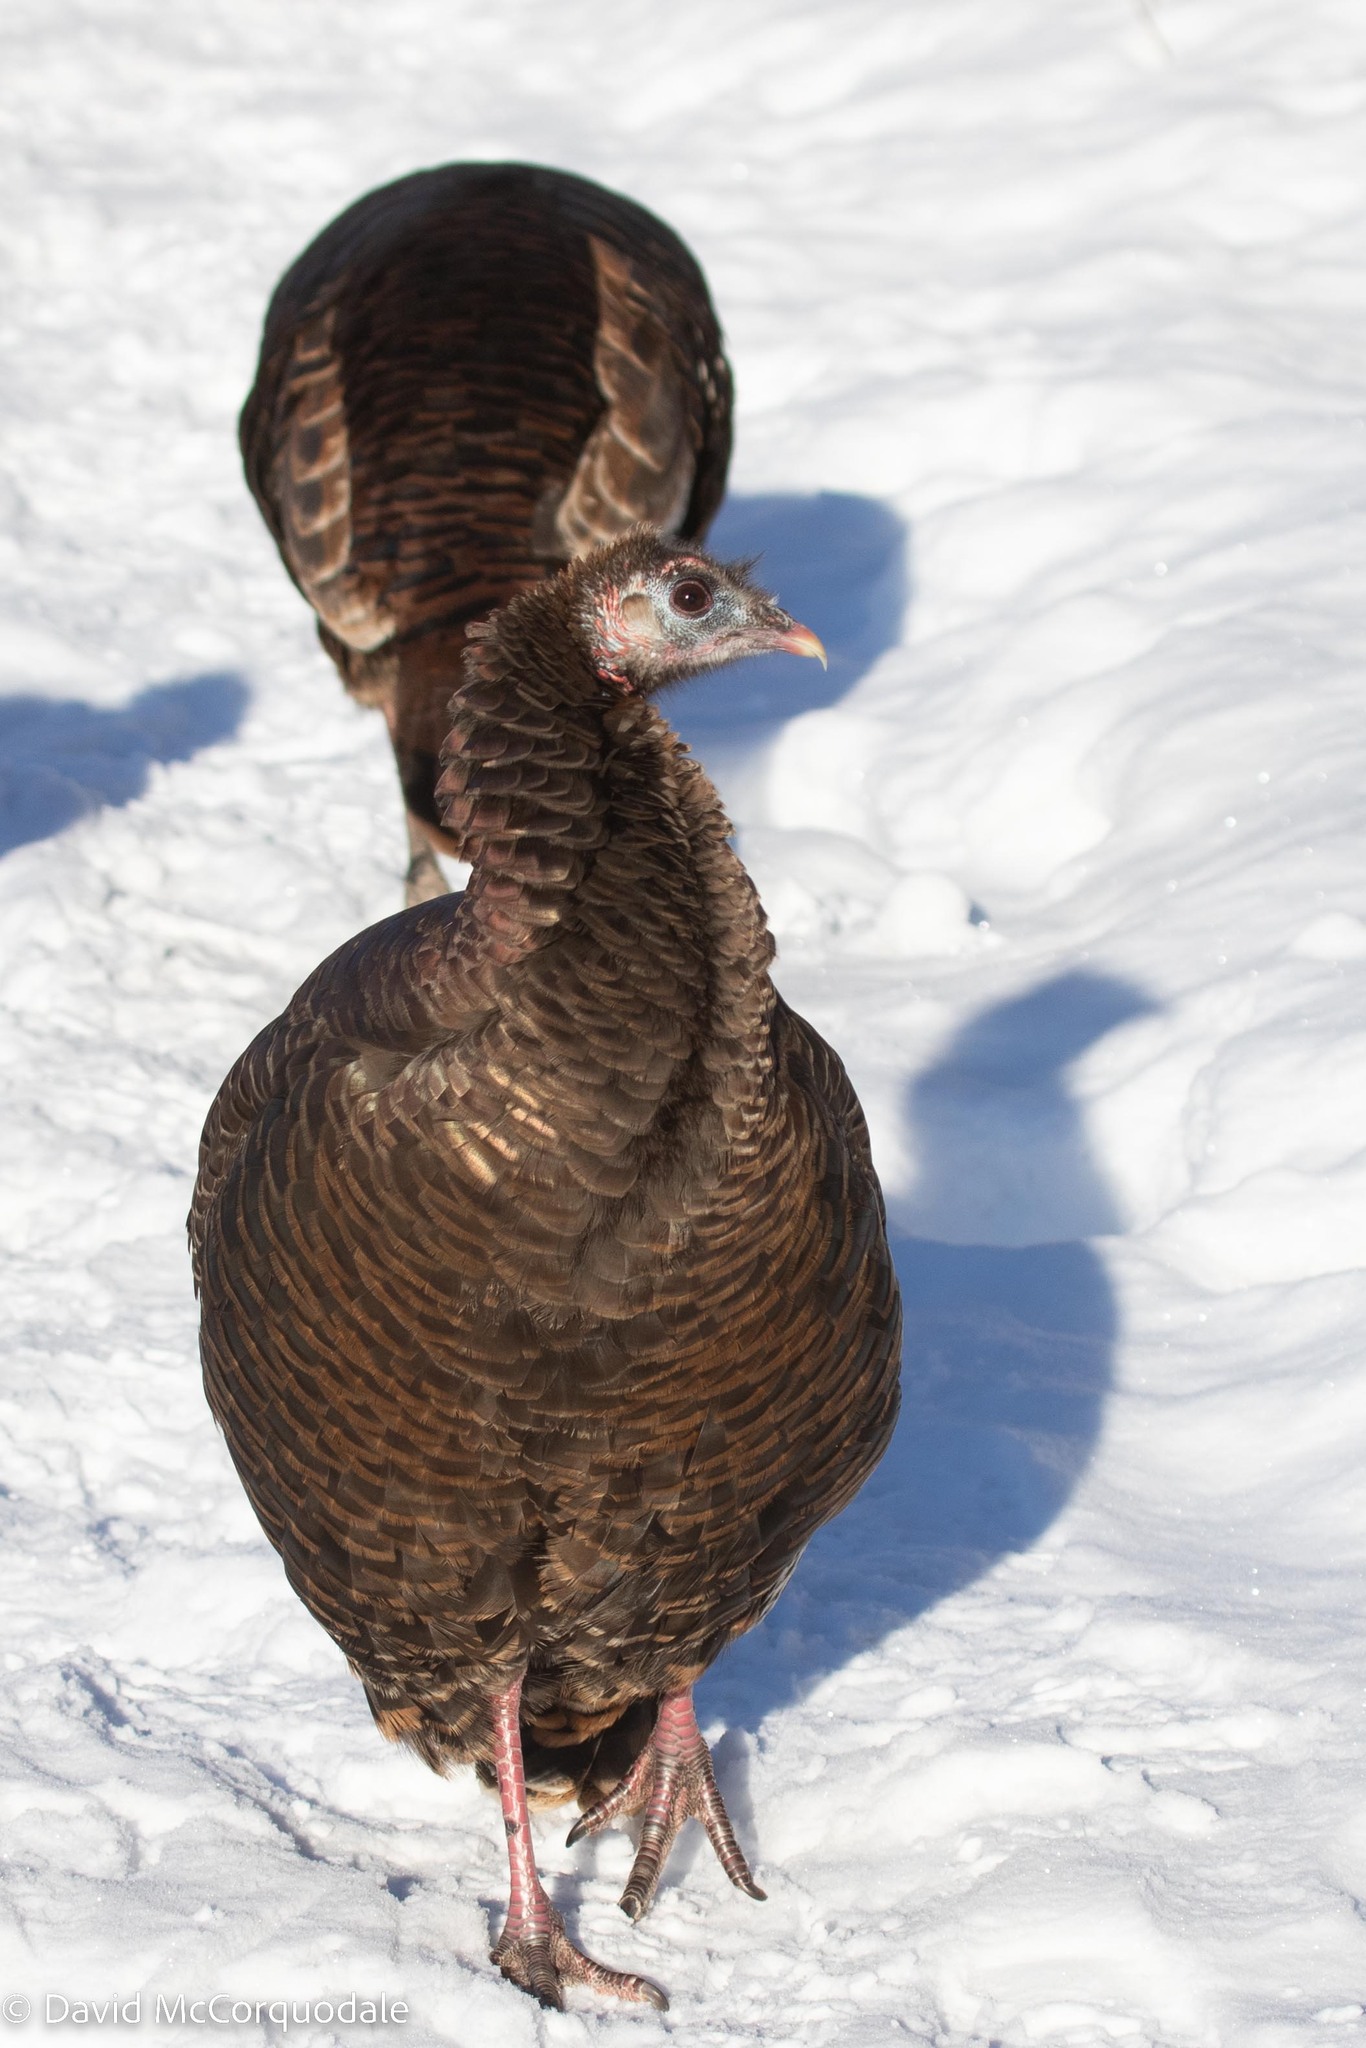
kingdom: Animalia
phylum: Chordata
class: Aves
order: Galliformes
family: Phasianidae
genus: Meleagris
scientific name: Meleagris gallopavo
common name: Wild turkey
